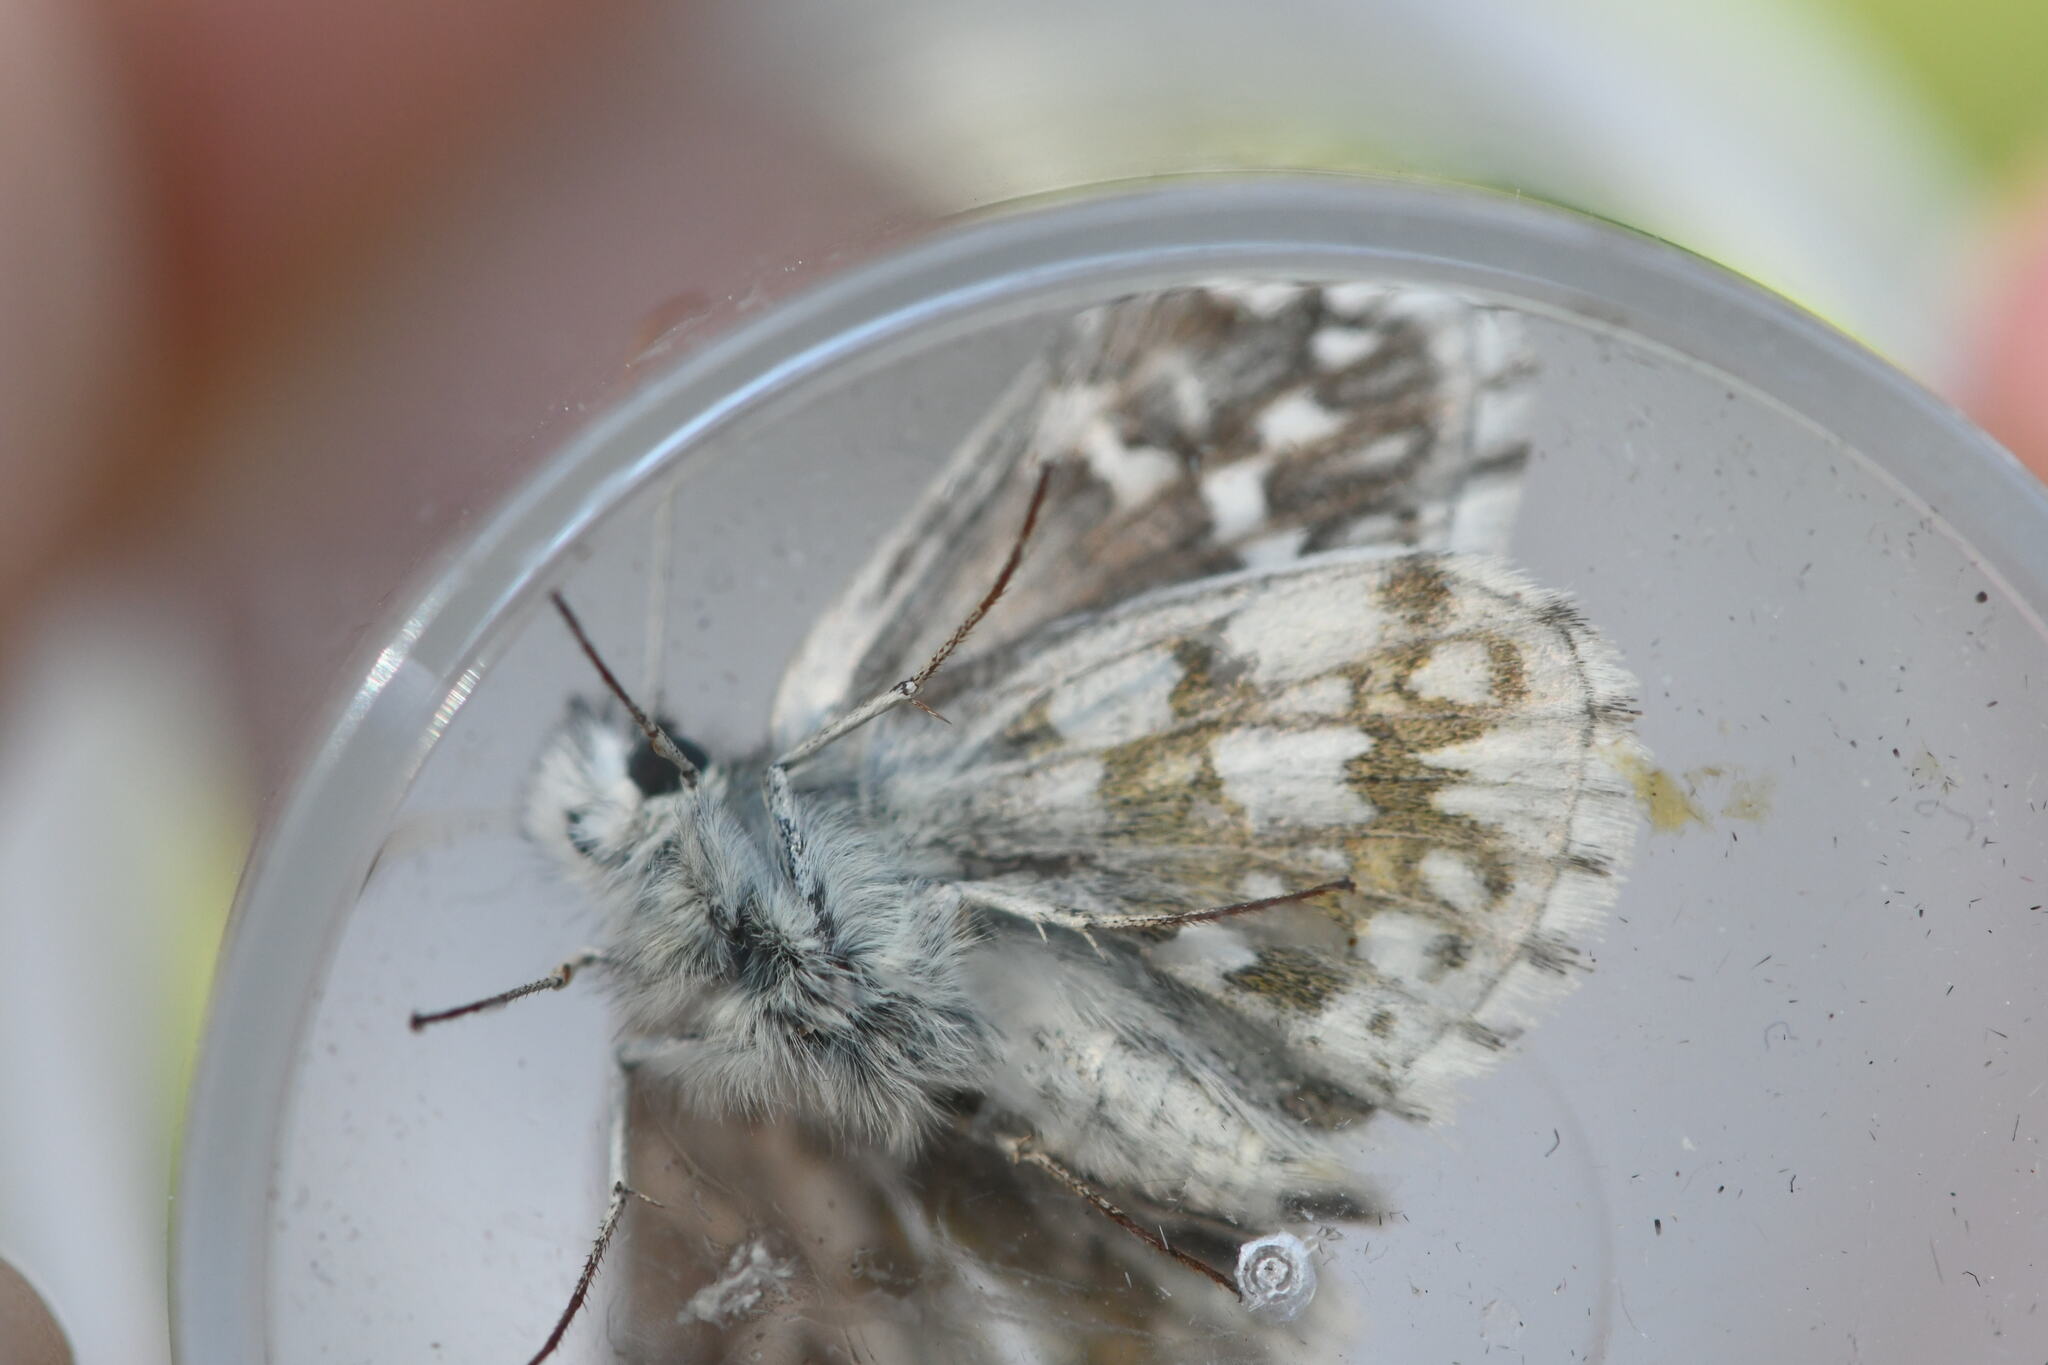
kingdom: Animalia
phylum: Arthropoda
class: Insecta
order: Lepidoptera
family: Hesperiidae
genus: Pyrgus
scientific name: Pyrgus fritillarius
